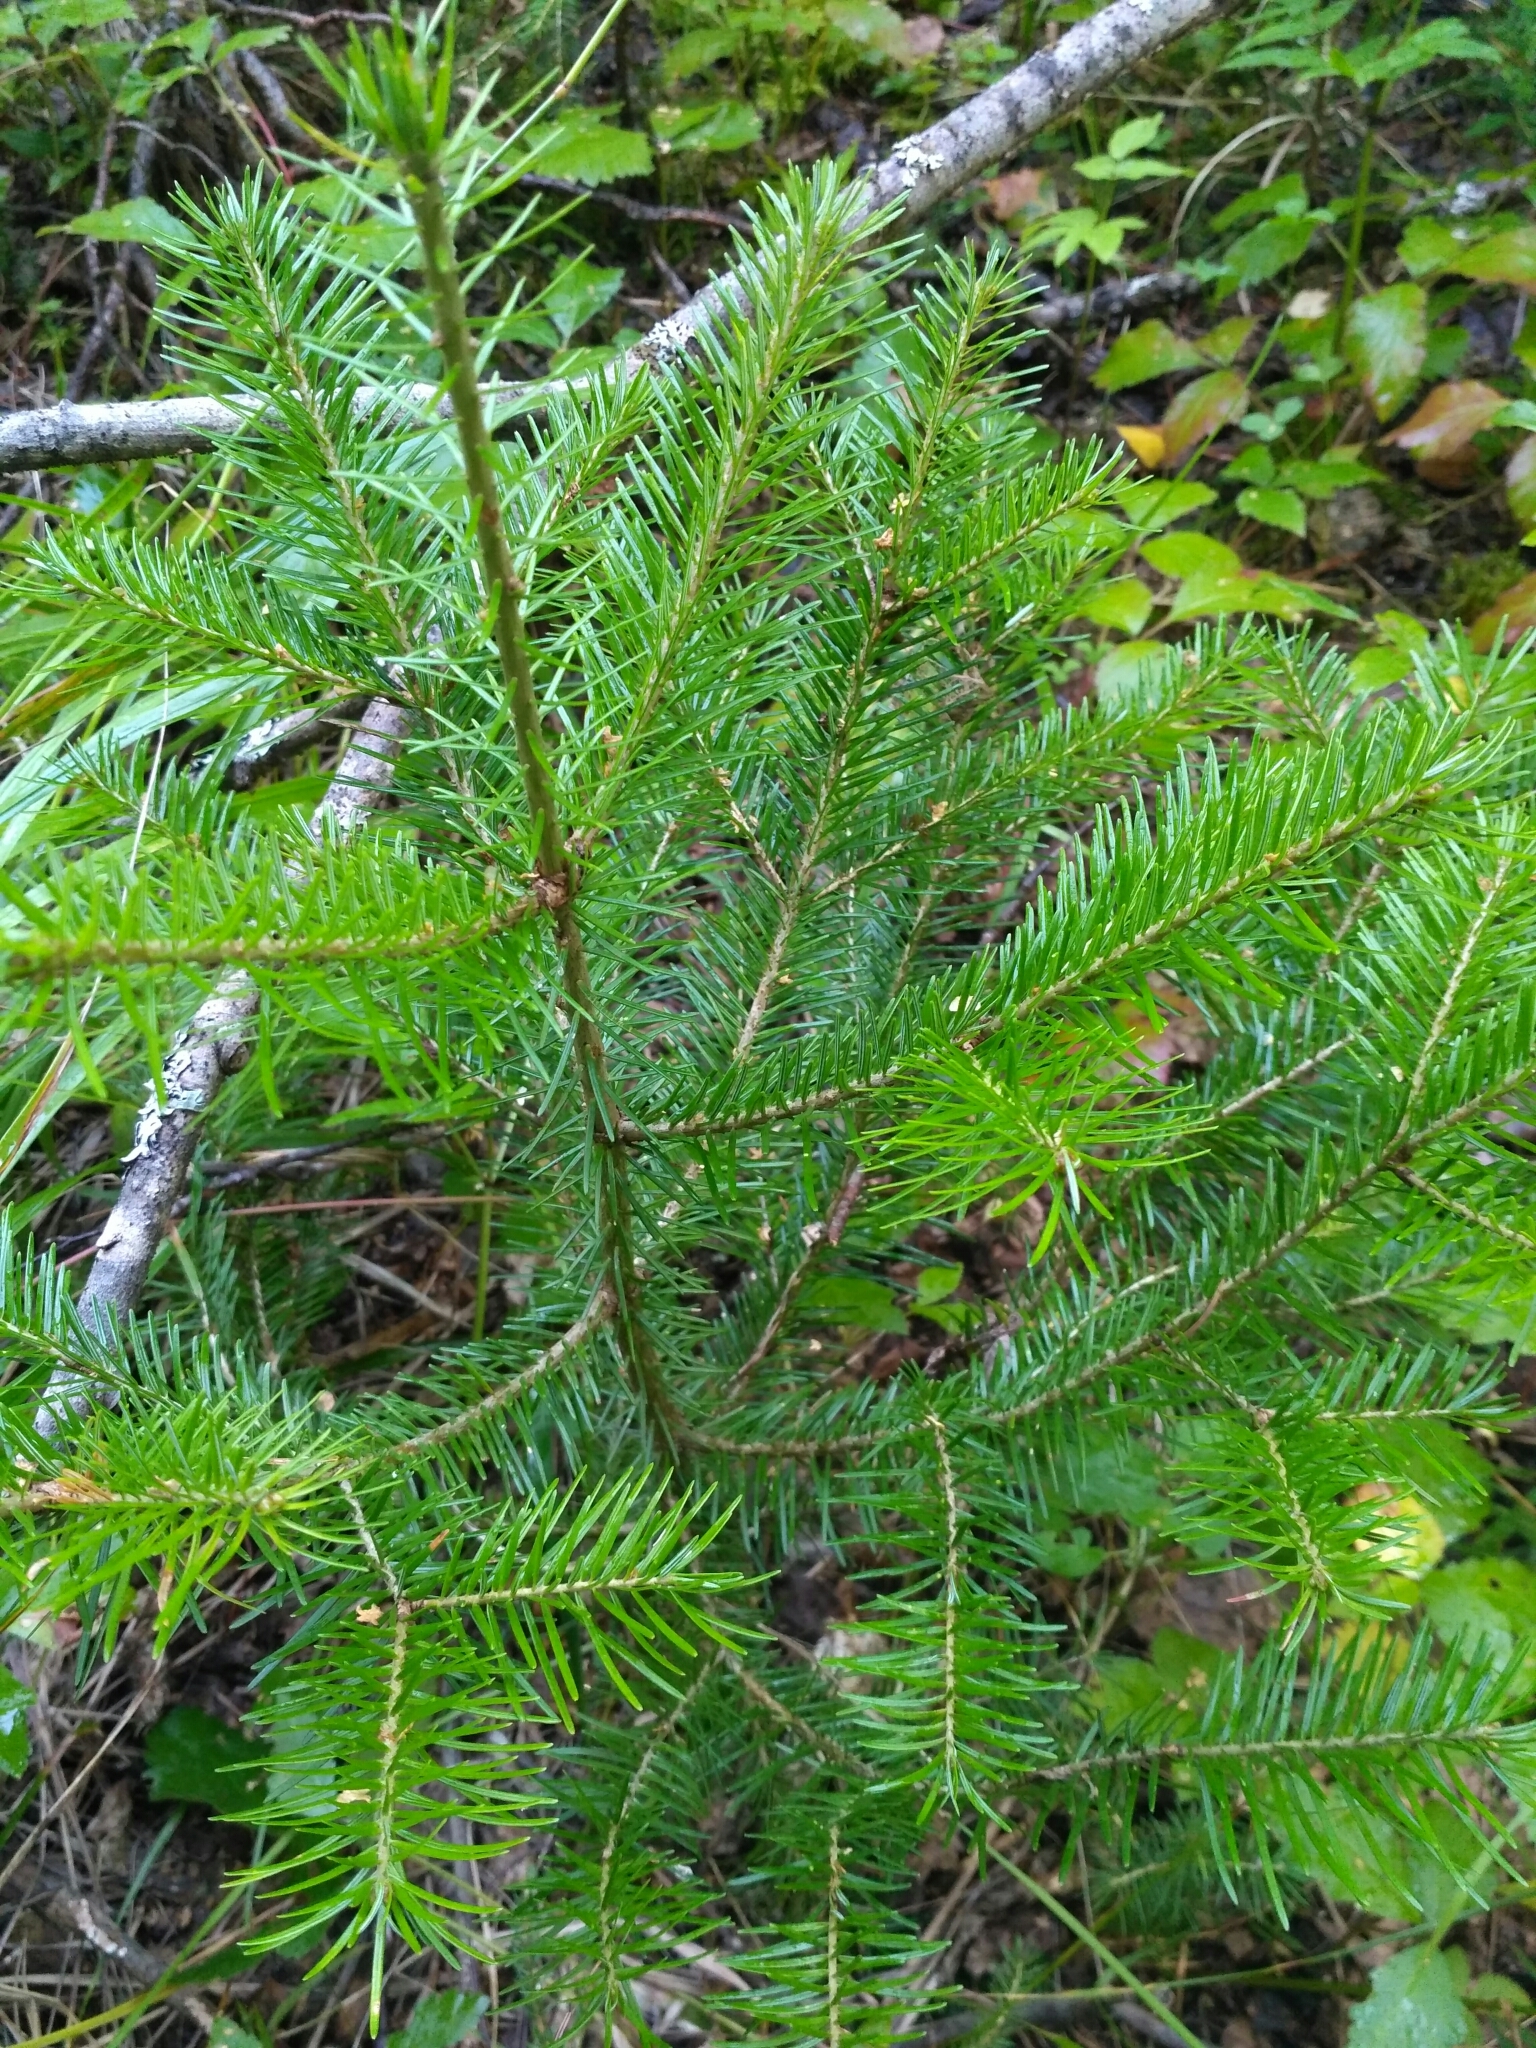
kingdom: Plantae
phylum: Tracheophyta
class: Pinopsida
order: Pinales
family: Pinaceae
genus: Abies
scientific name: Abies sibirica
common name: Siberian fir
